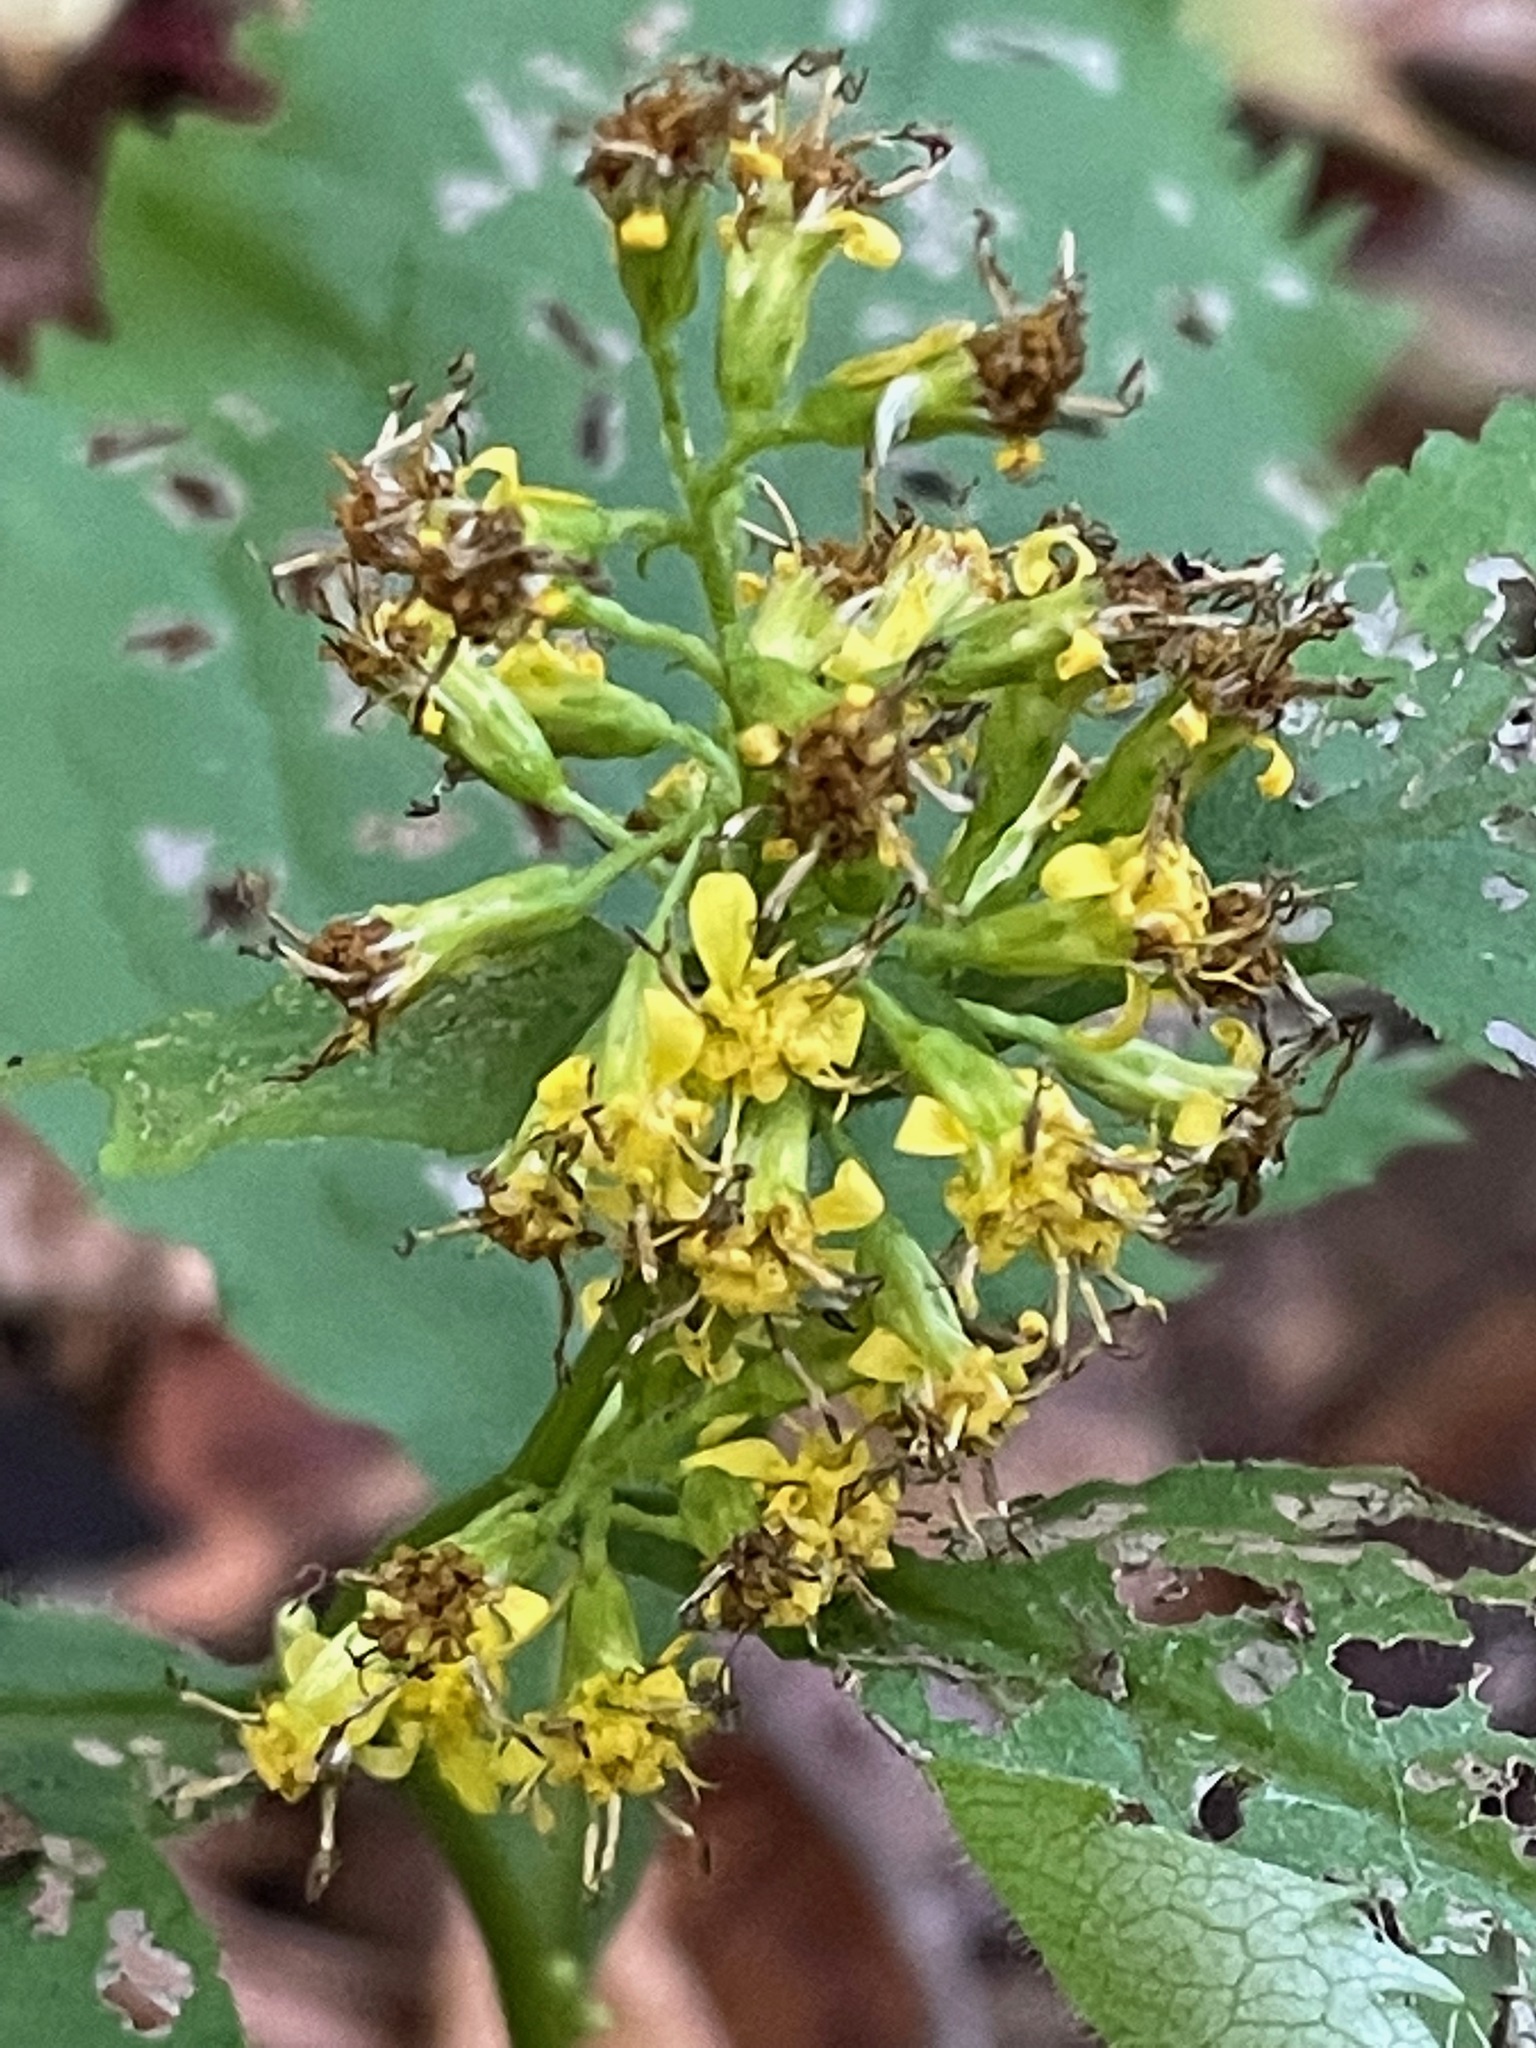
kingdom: Plantae
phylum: Tracheophyta
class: Magnoliopsida
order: Asterales
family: Asteraceae
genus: Solidago
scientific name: Solidago flexicaulis
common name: Zig-zag goldenrod
